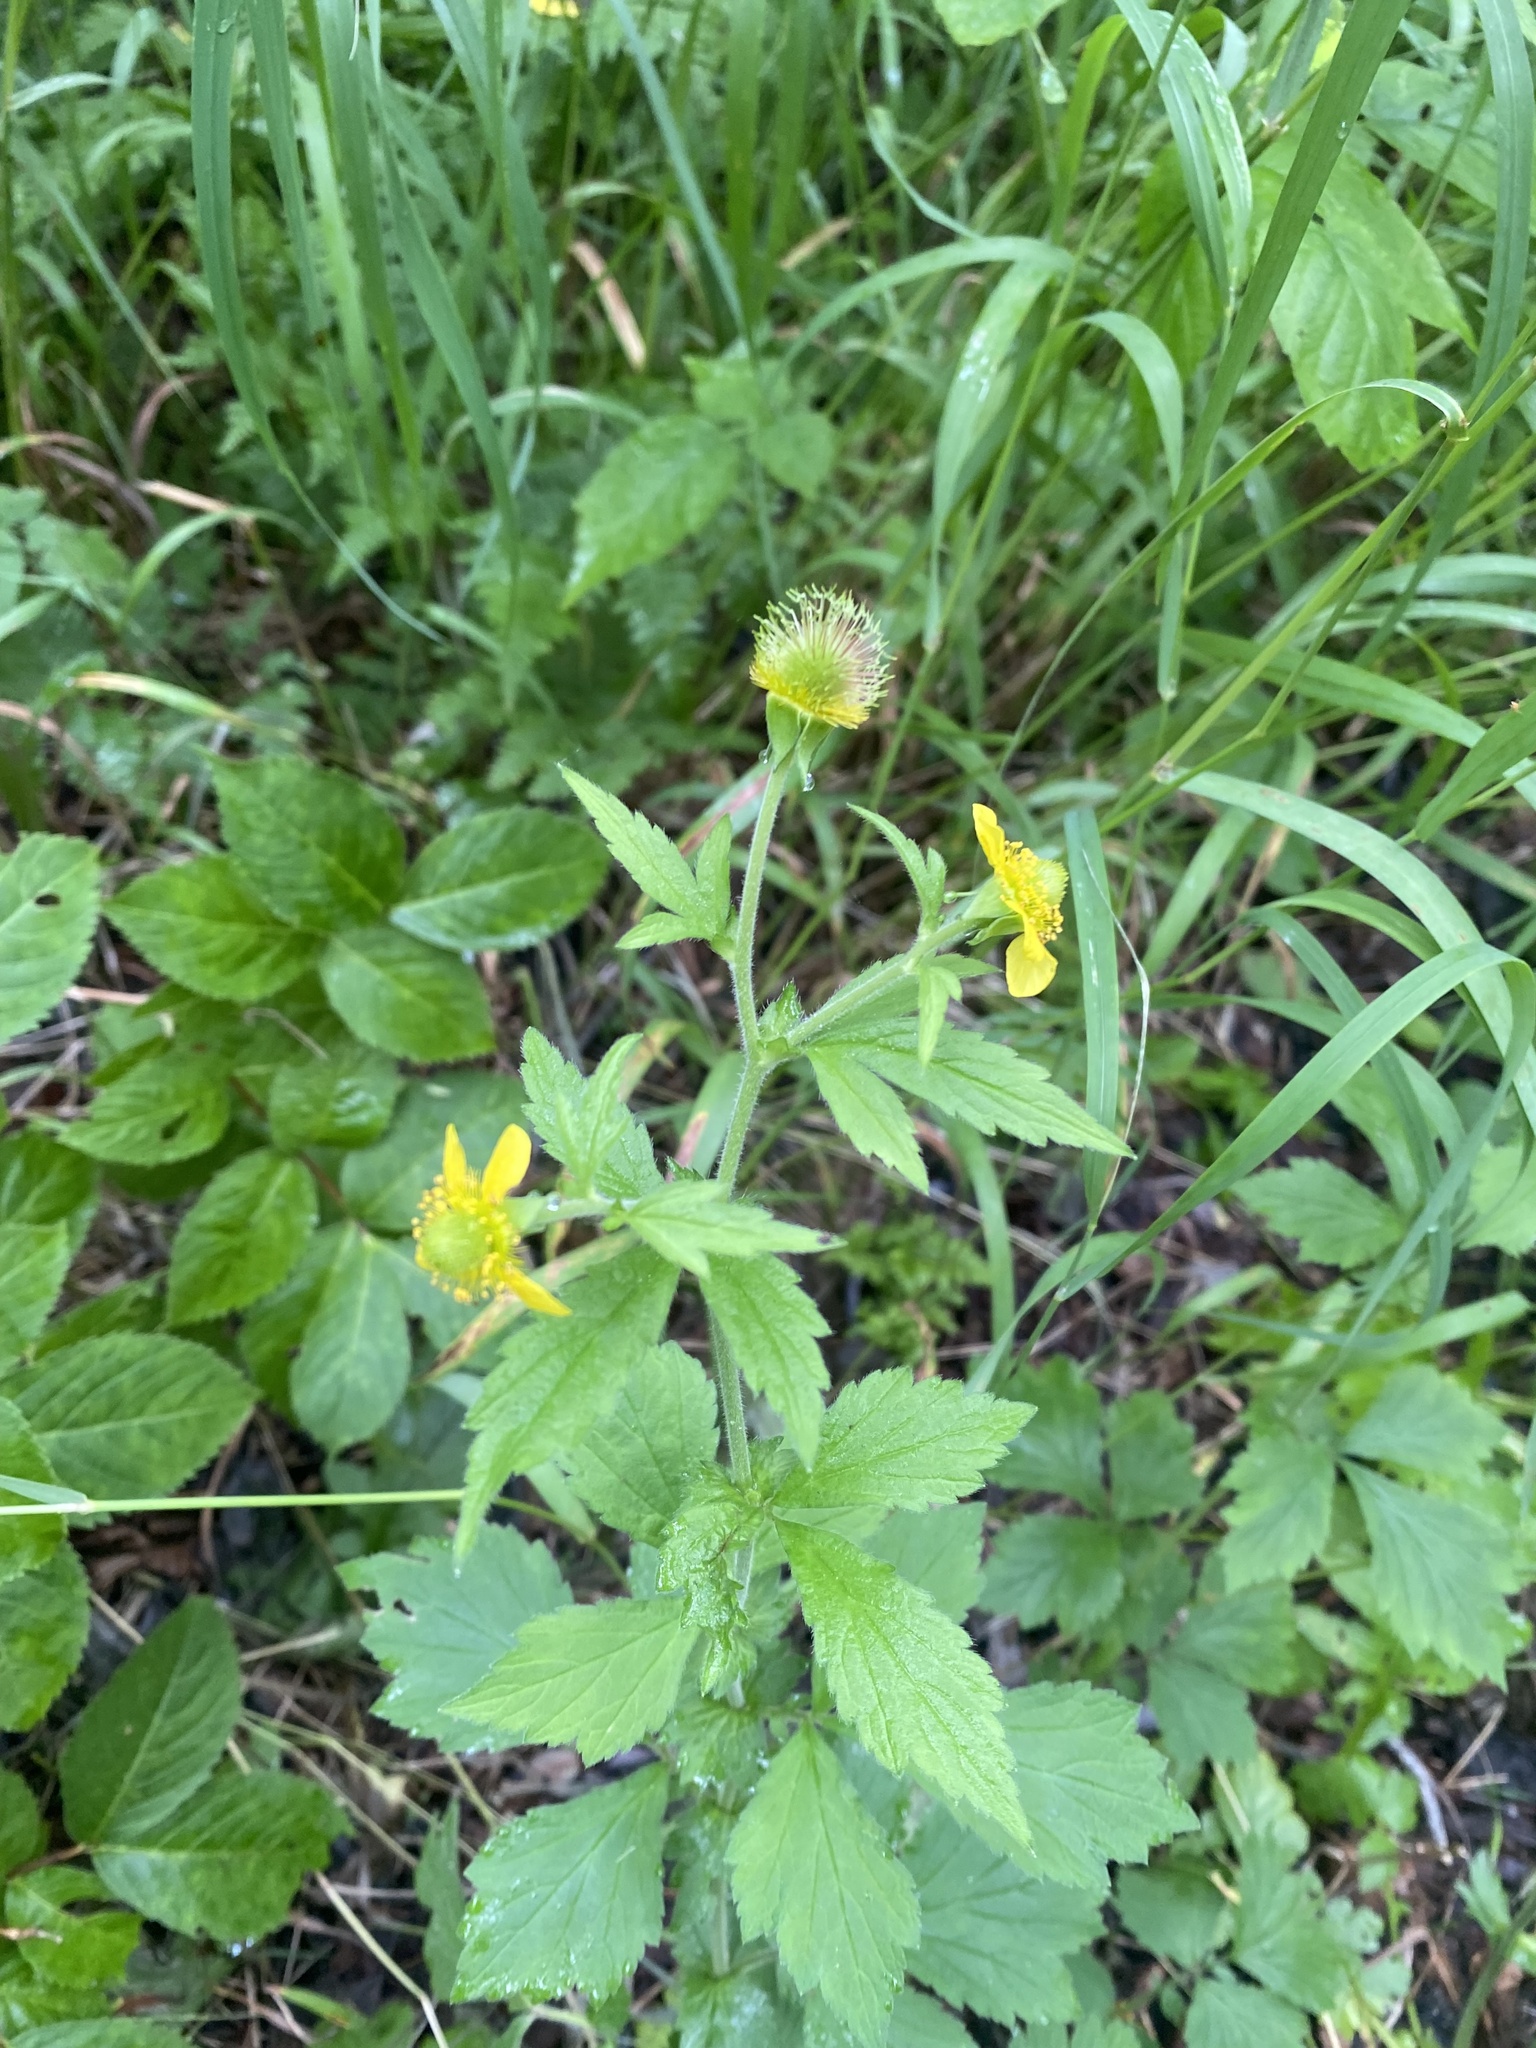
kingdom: Plantae
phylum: Tracheophyta
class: Magnoliopsida
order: Rosales
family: Rosaceae
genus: Geum
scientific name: Geum aleppicum
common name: Yellow avens
